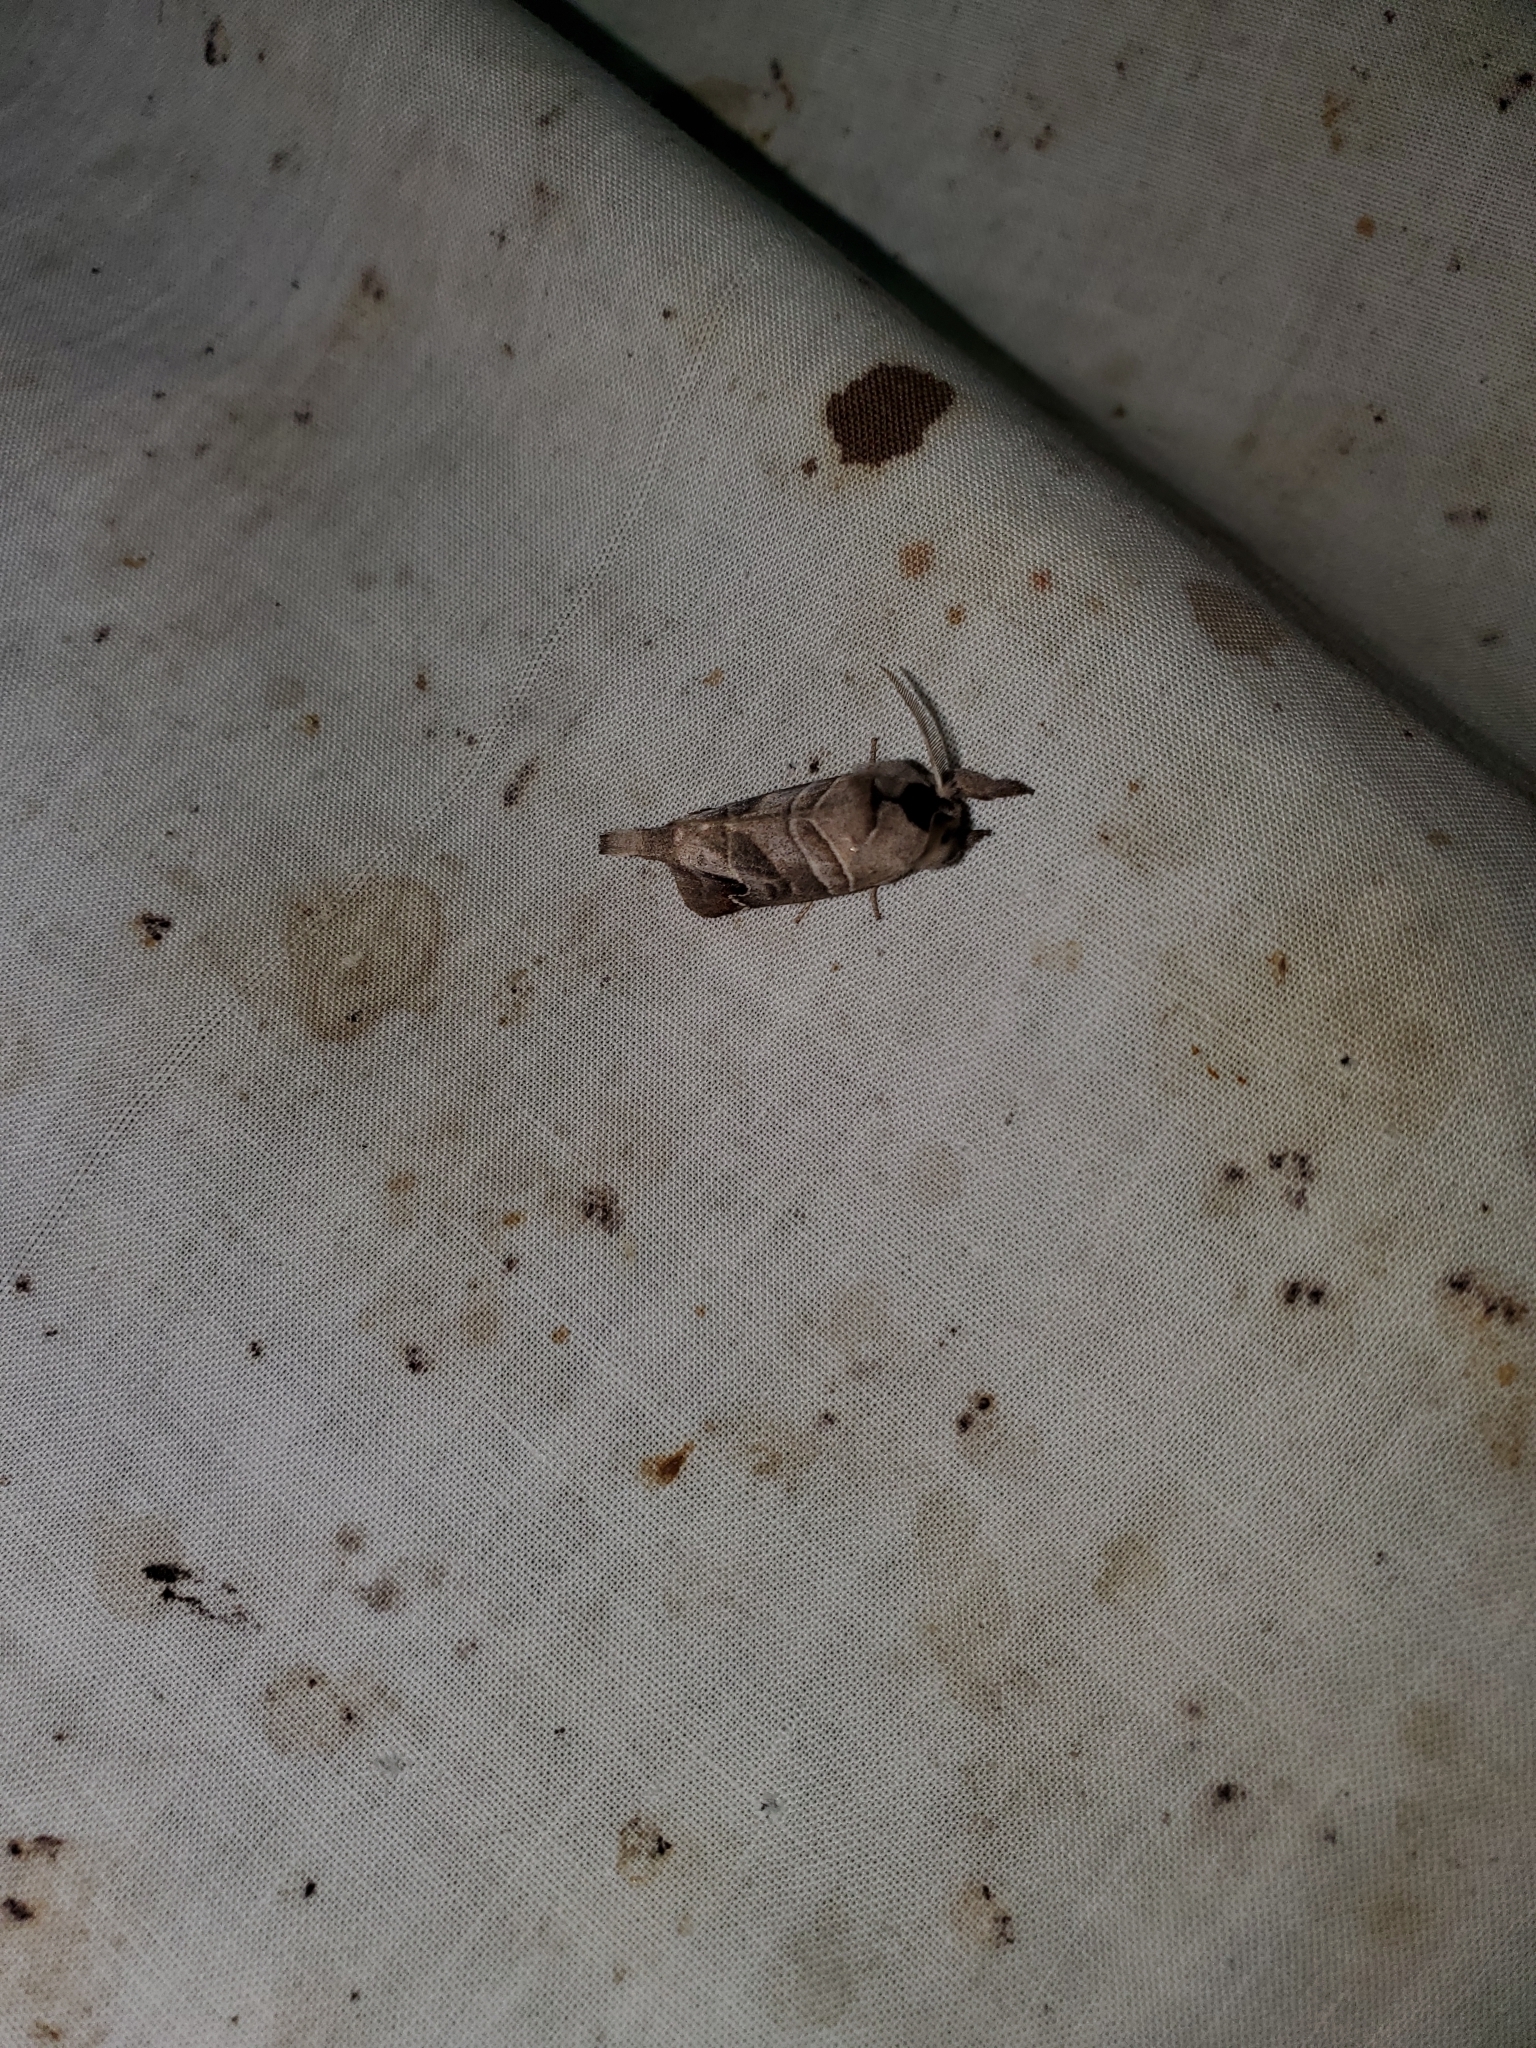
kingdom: Animalia
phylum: Arthropoda
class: Insecta
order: Lepidoptera
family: Notodontidae
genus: Clostera
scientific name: Clostera albosigma
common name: Sigmoid prominent
